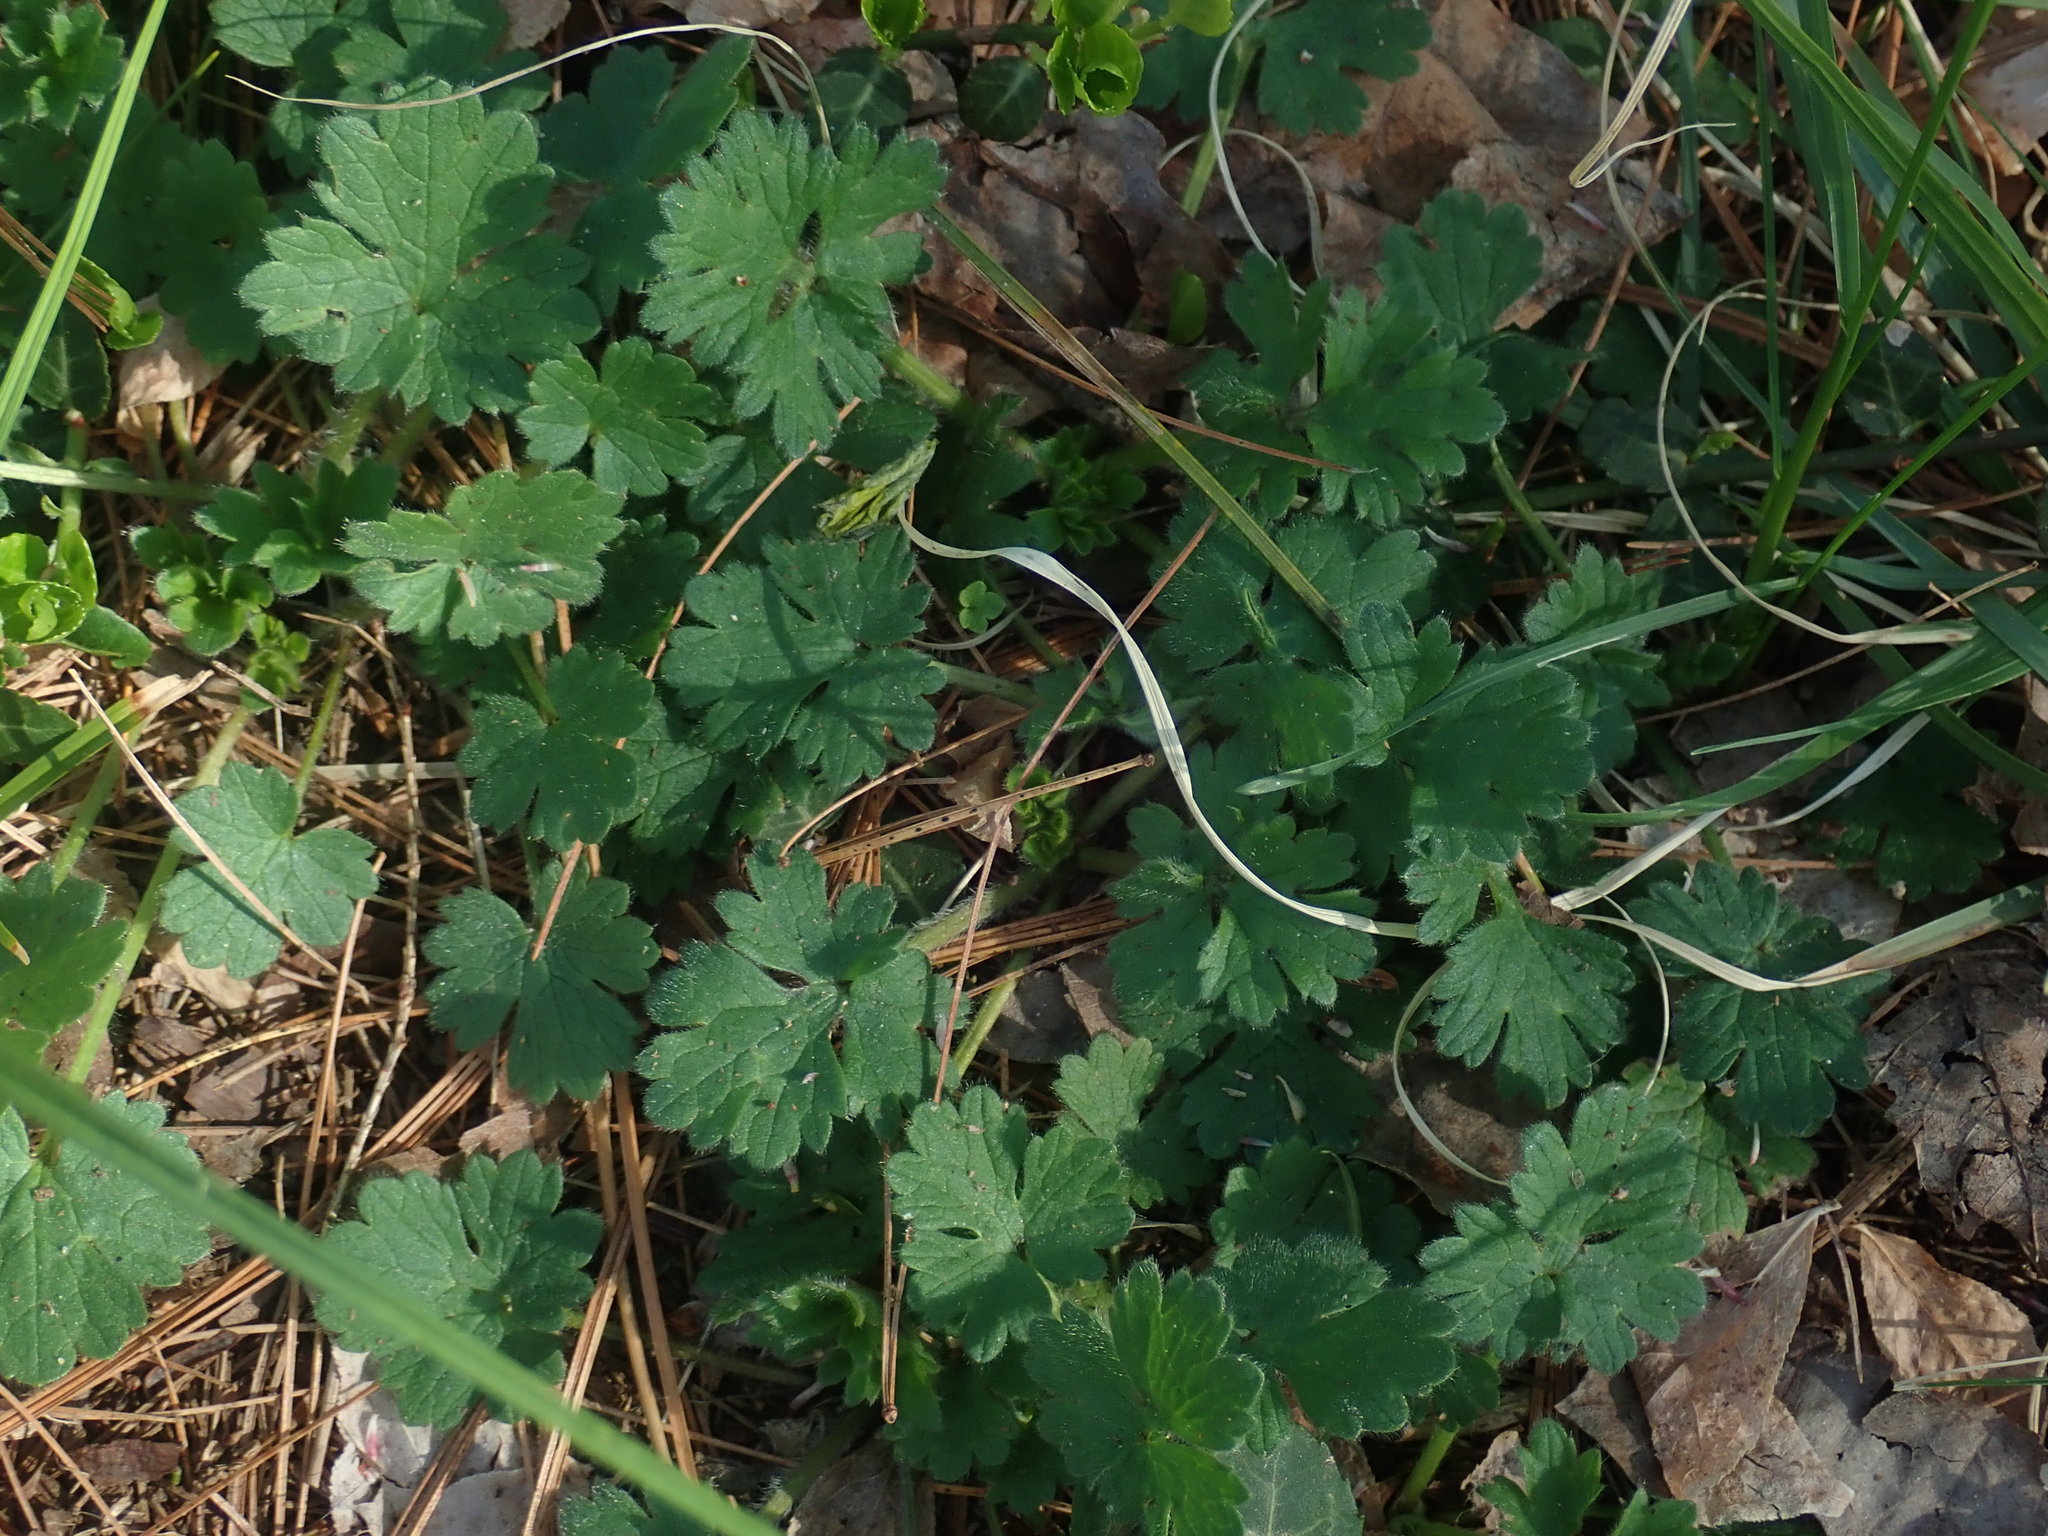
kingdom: Plantae
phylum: Tracheophyta
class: Magnoliopsida
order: Ranunculales
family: Ranunculaceae
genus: Ranunculus
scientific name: Ranunculus bulbosus
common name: Bulbous buttercup
